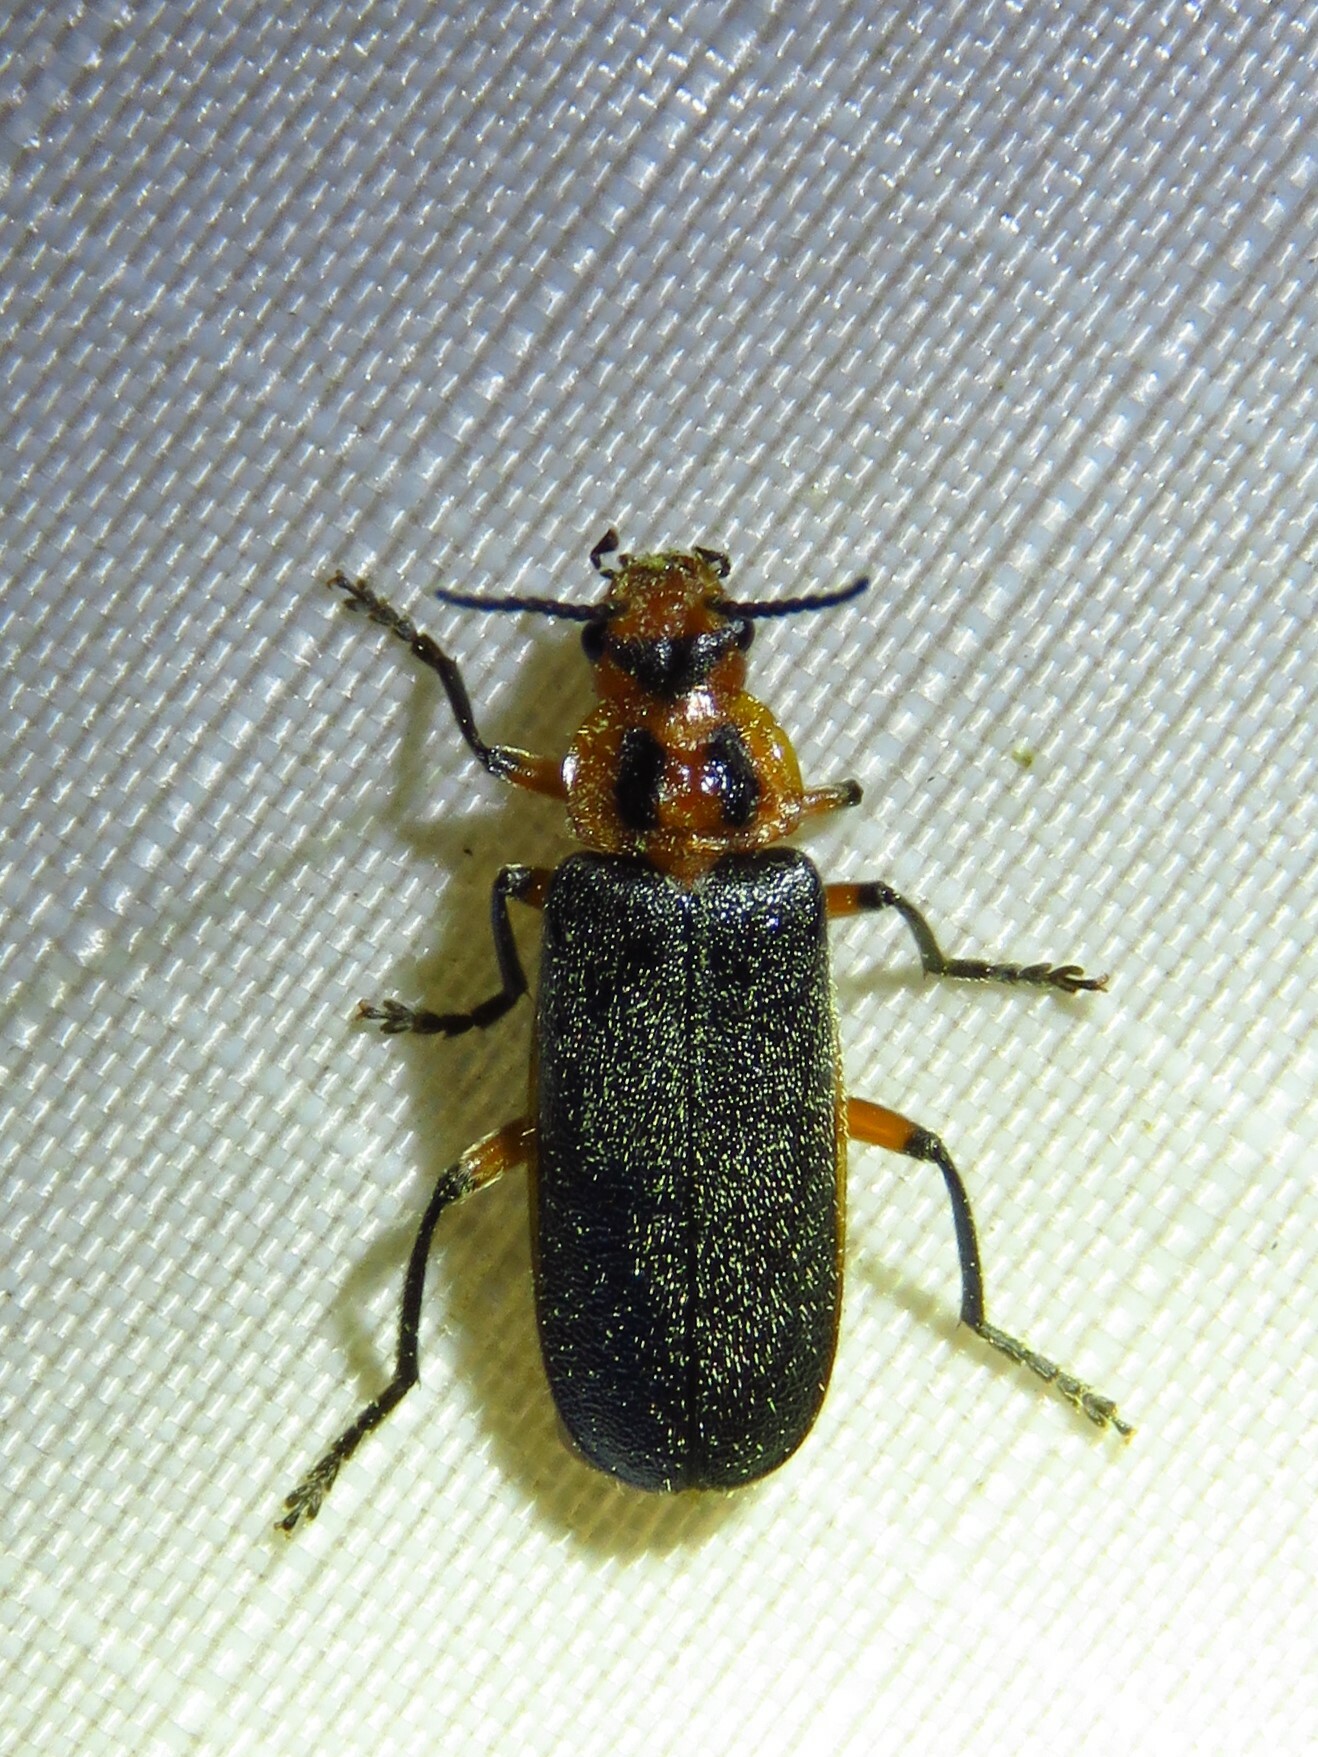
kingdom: Animalia
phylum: Arthropoda
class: Insecta
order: Coleoptera
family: Cantharidae
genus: Atalantycha
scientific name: Atalantycha bilineata
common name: Two-lined leatherwing
